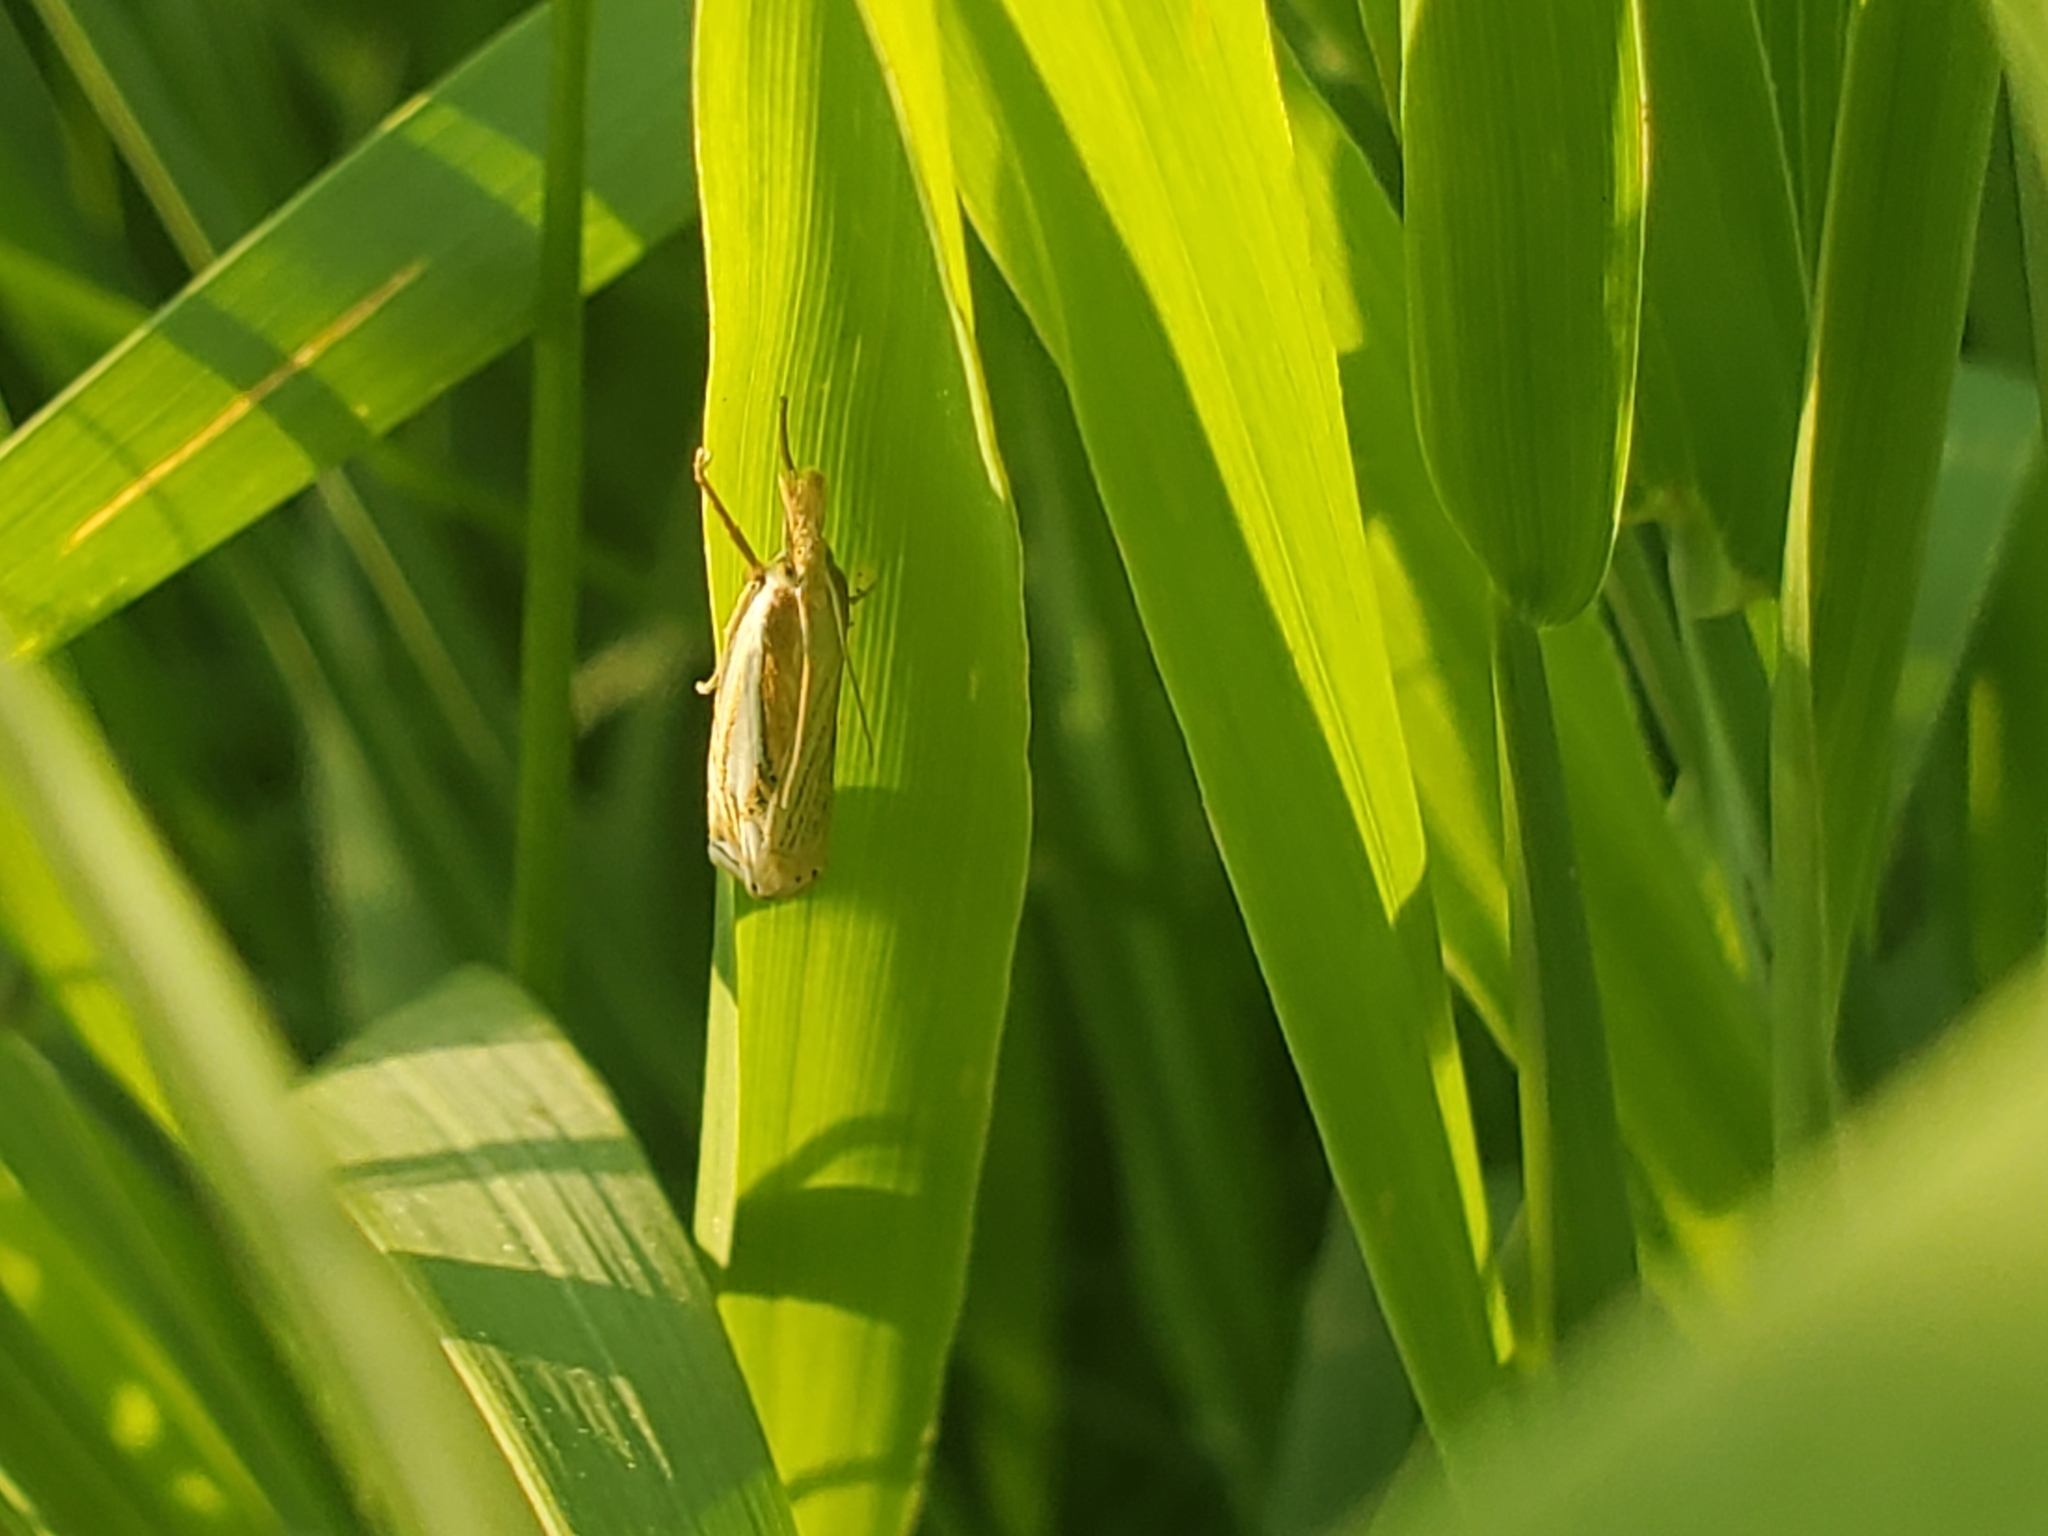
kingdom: Animalia
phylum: Arthropoda
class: Insecta
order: Lepidoptera
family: Crambidae
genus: Crambus
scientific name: Crambus saltuellus
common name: Pasture grass-veneer
